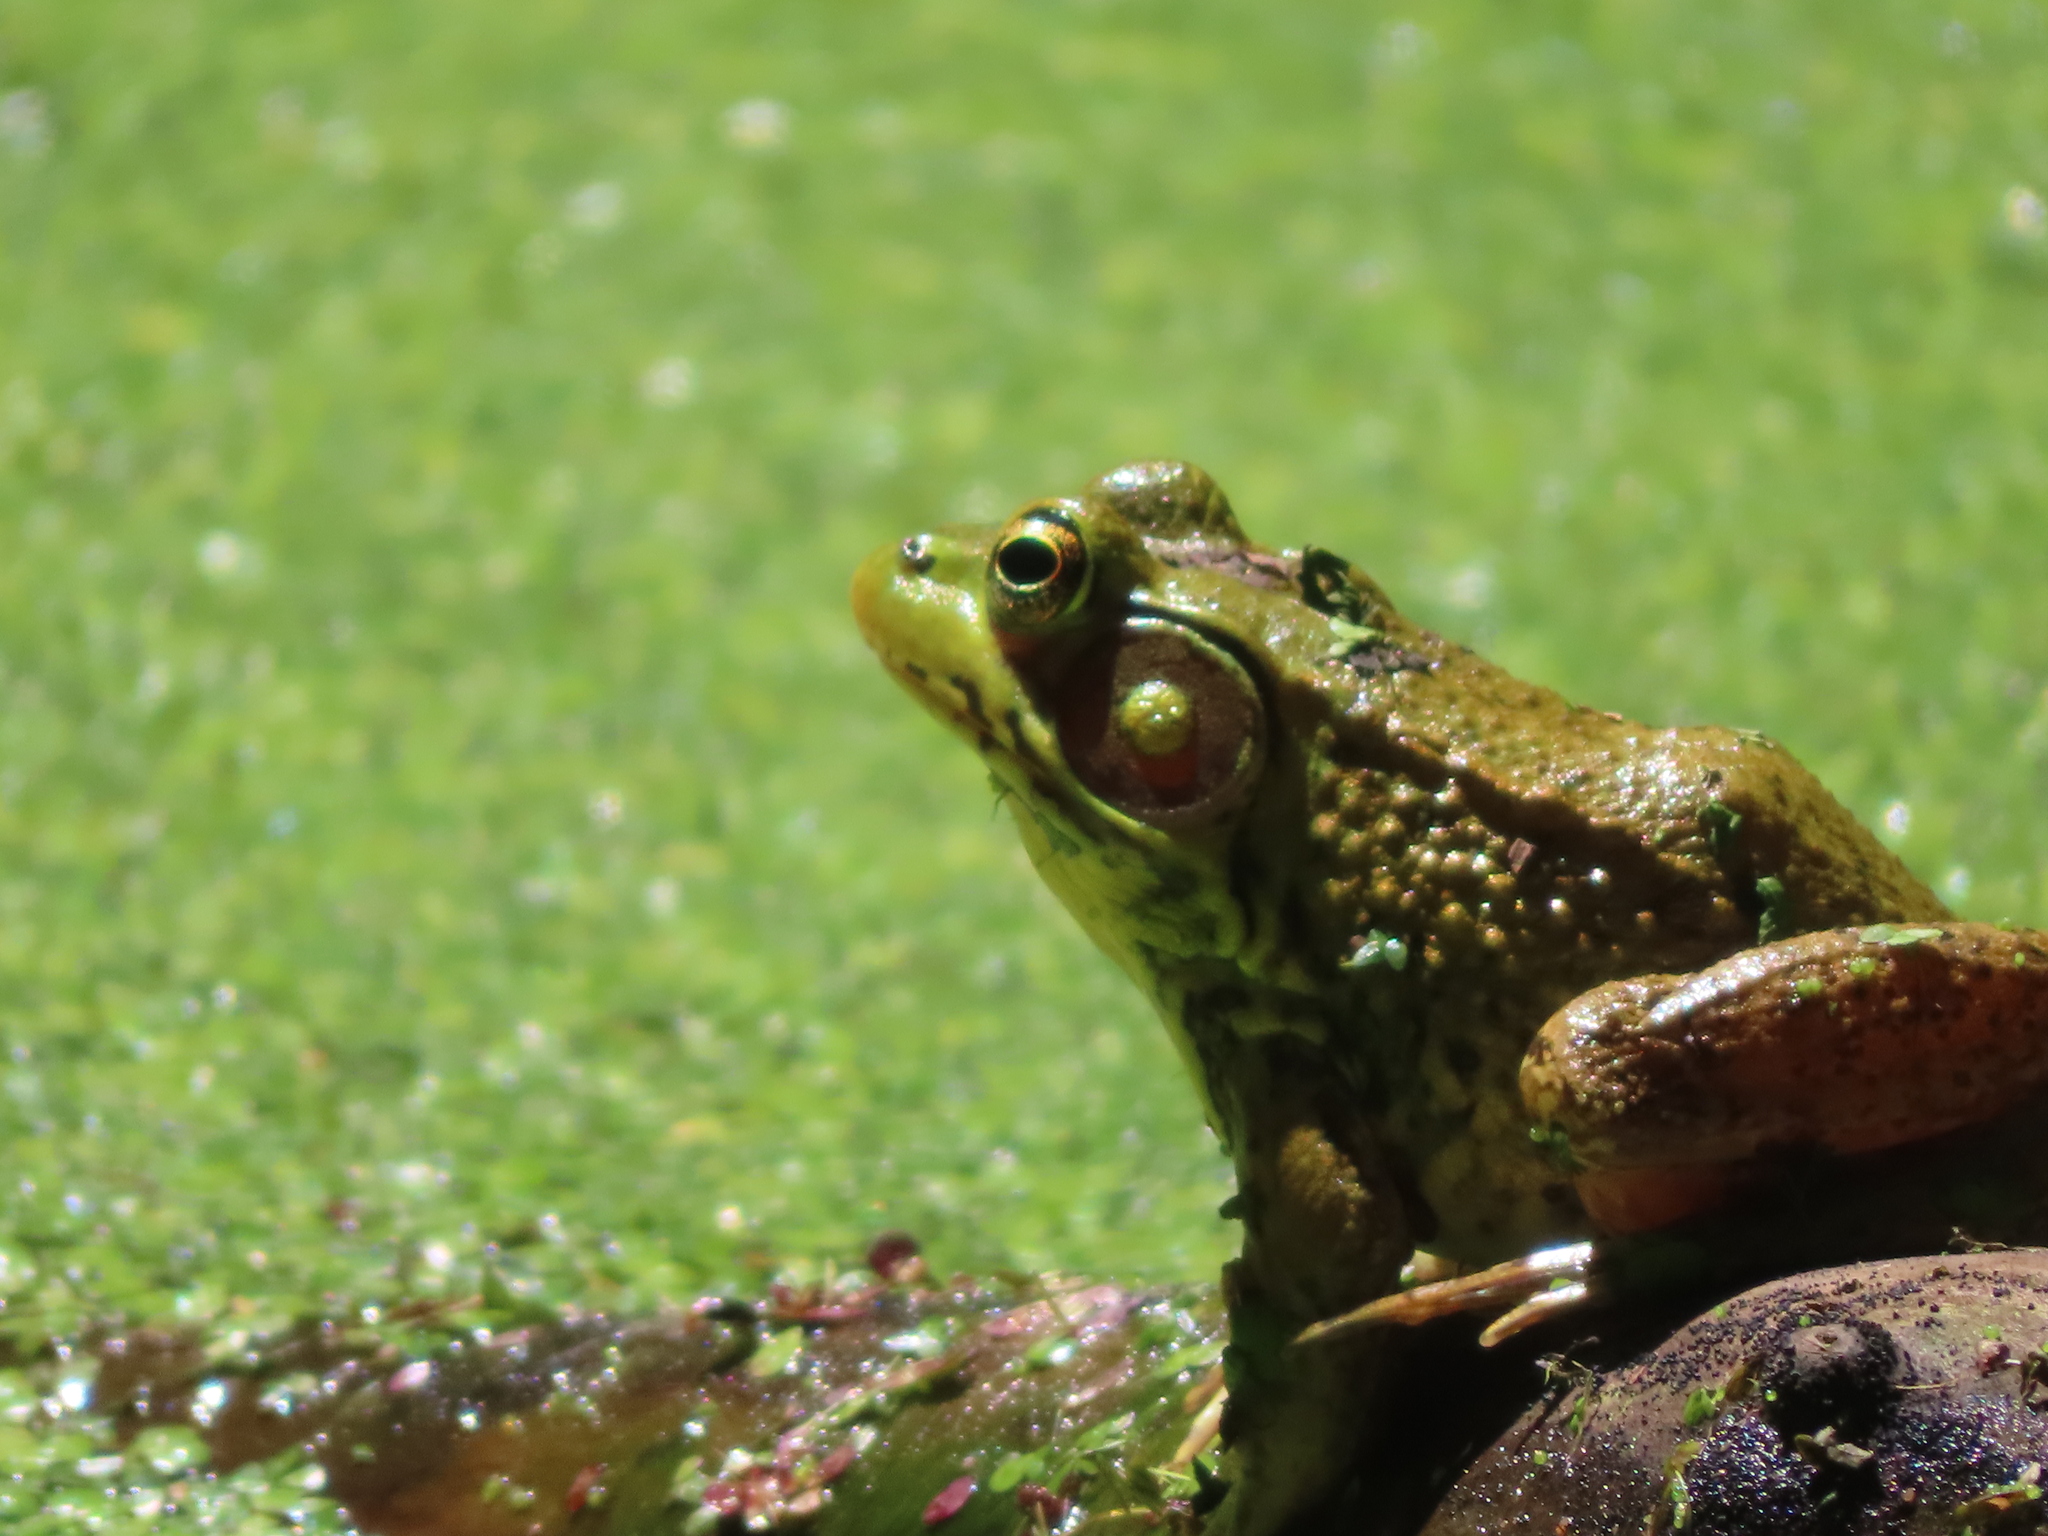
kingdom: Animalia
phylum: Chordata
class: Amphibia
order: Anura
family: Ranidae
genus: Lithobates
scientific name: Lithobates clamitans
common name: Green frog
